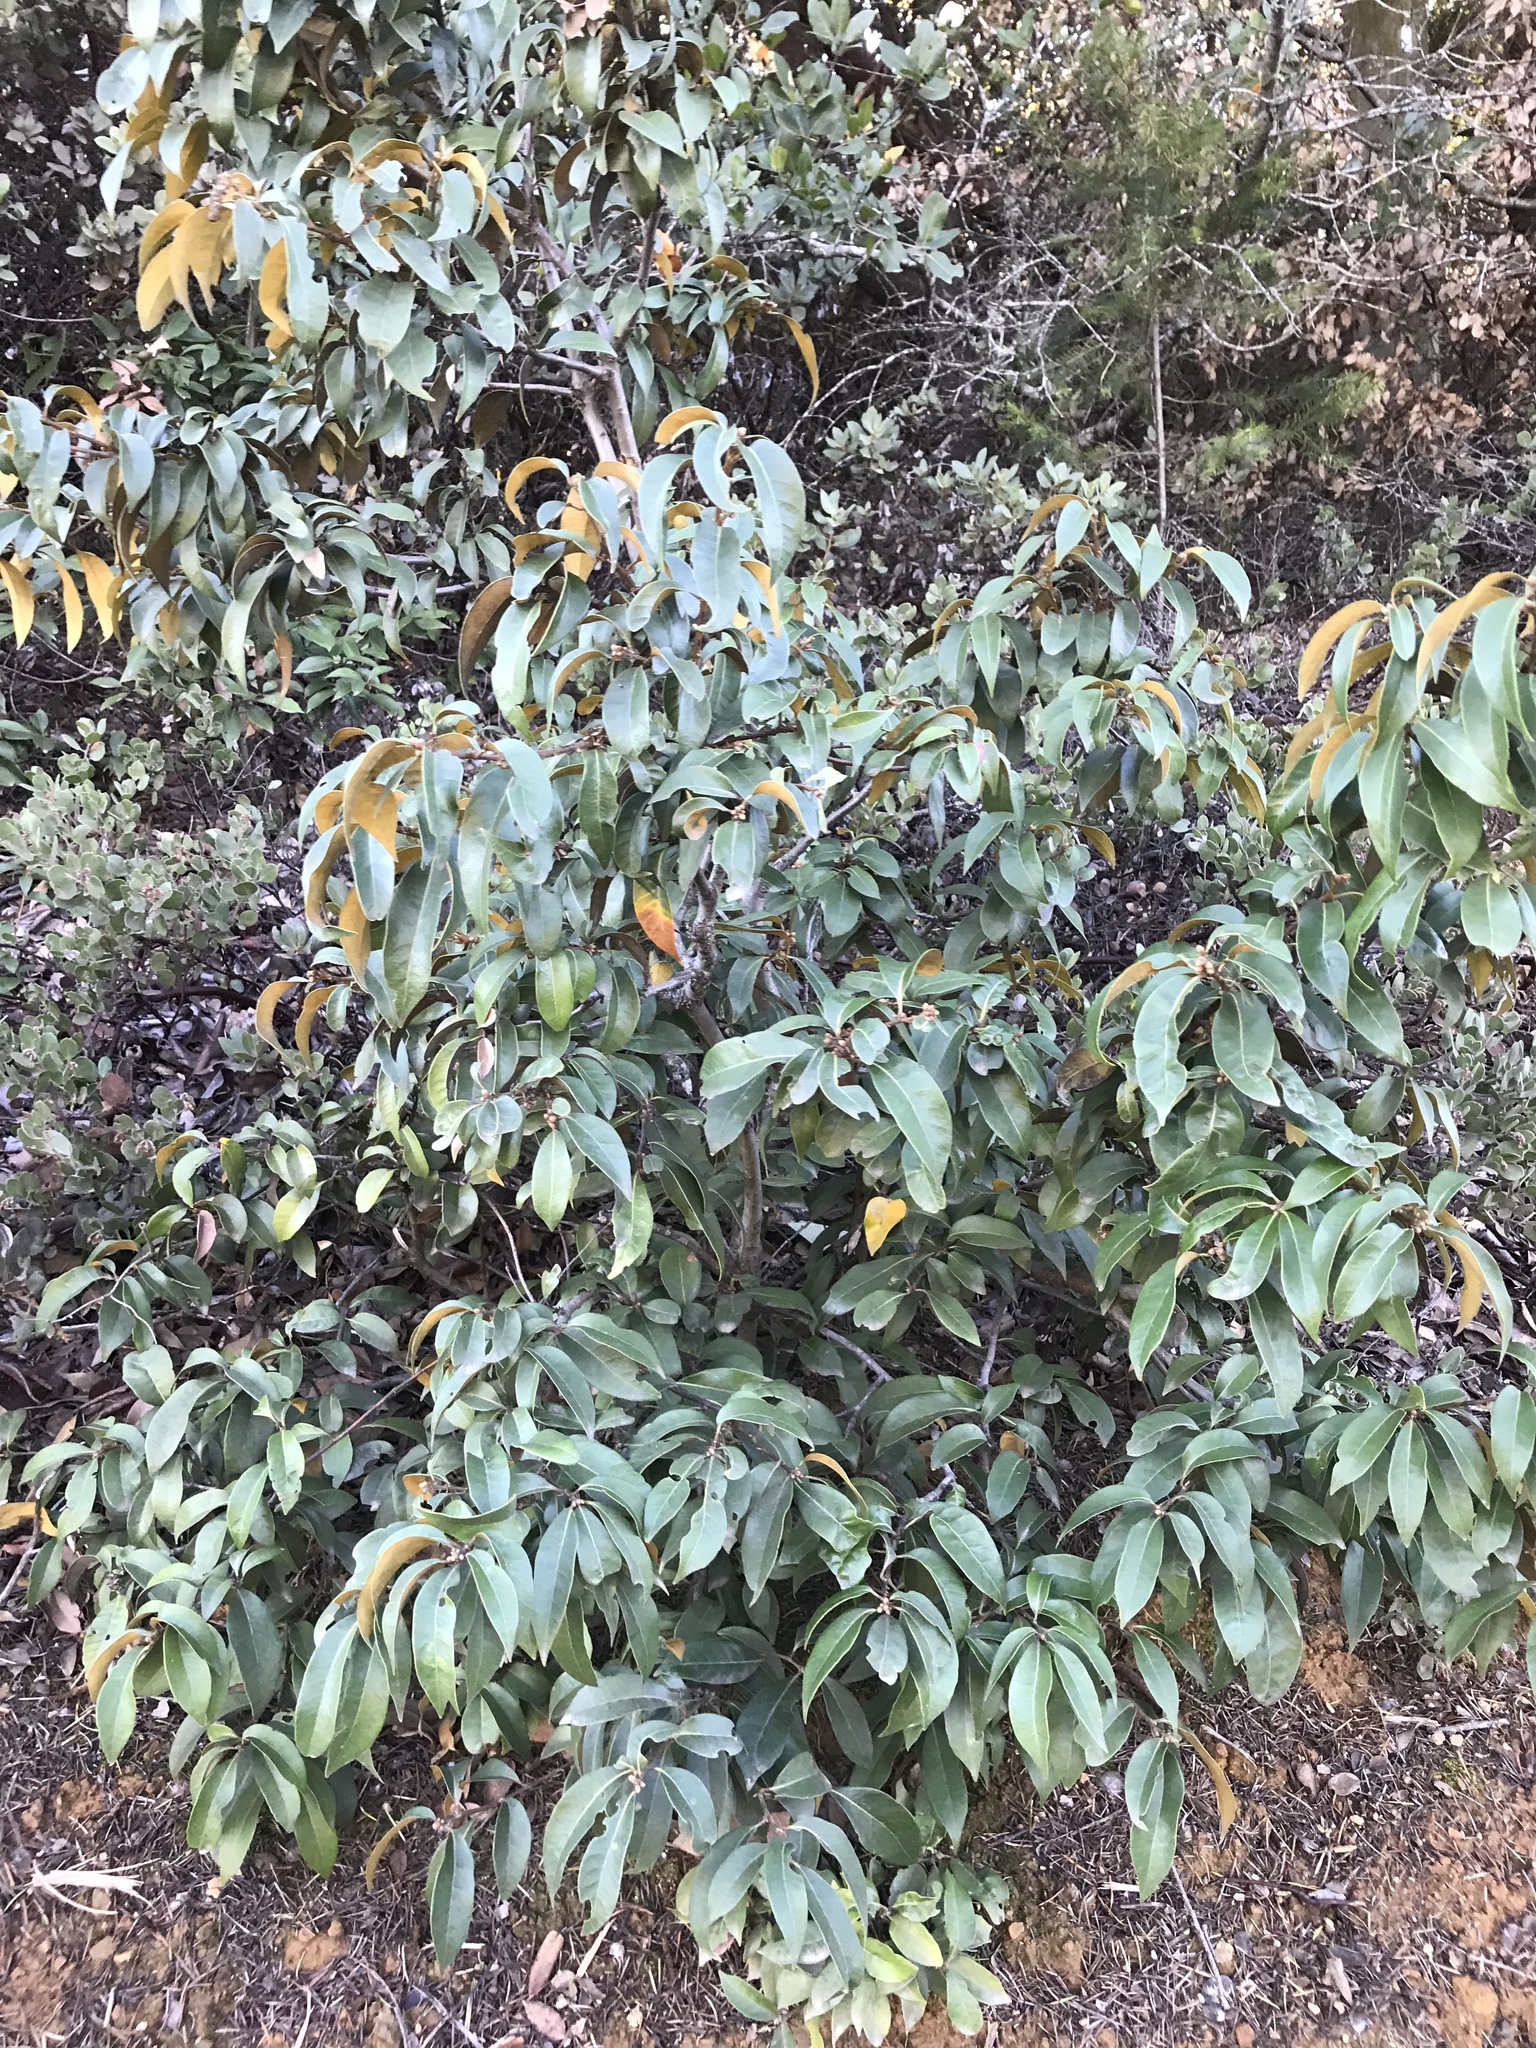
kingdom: Plantae
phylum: Tracheophyta
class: Magnoliopsida
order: Fagales
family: Fagaceae
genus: Chrysolepis
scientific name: Chrysolepis chrysophylla
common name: Giant chinquapin
